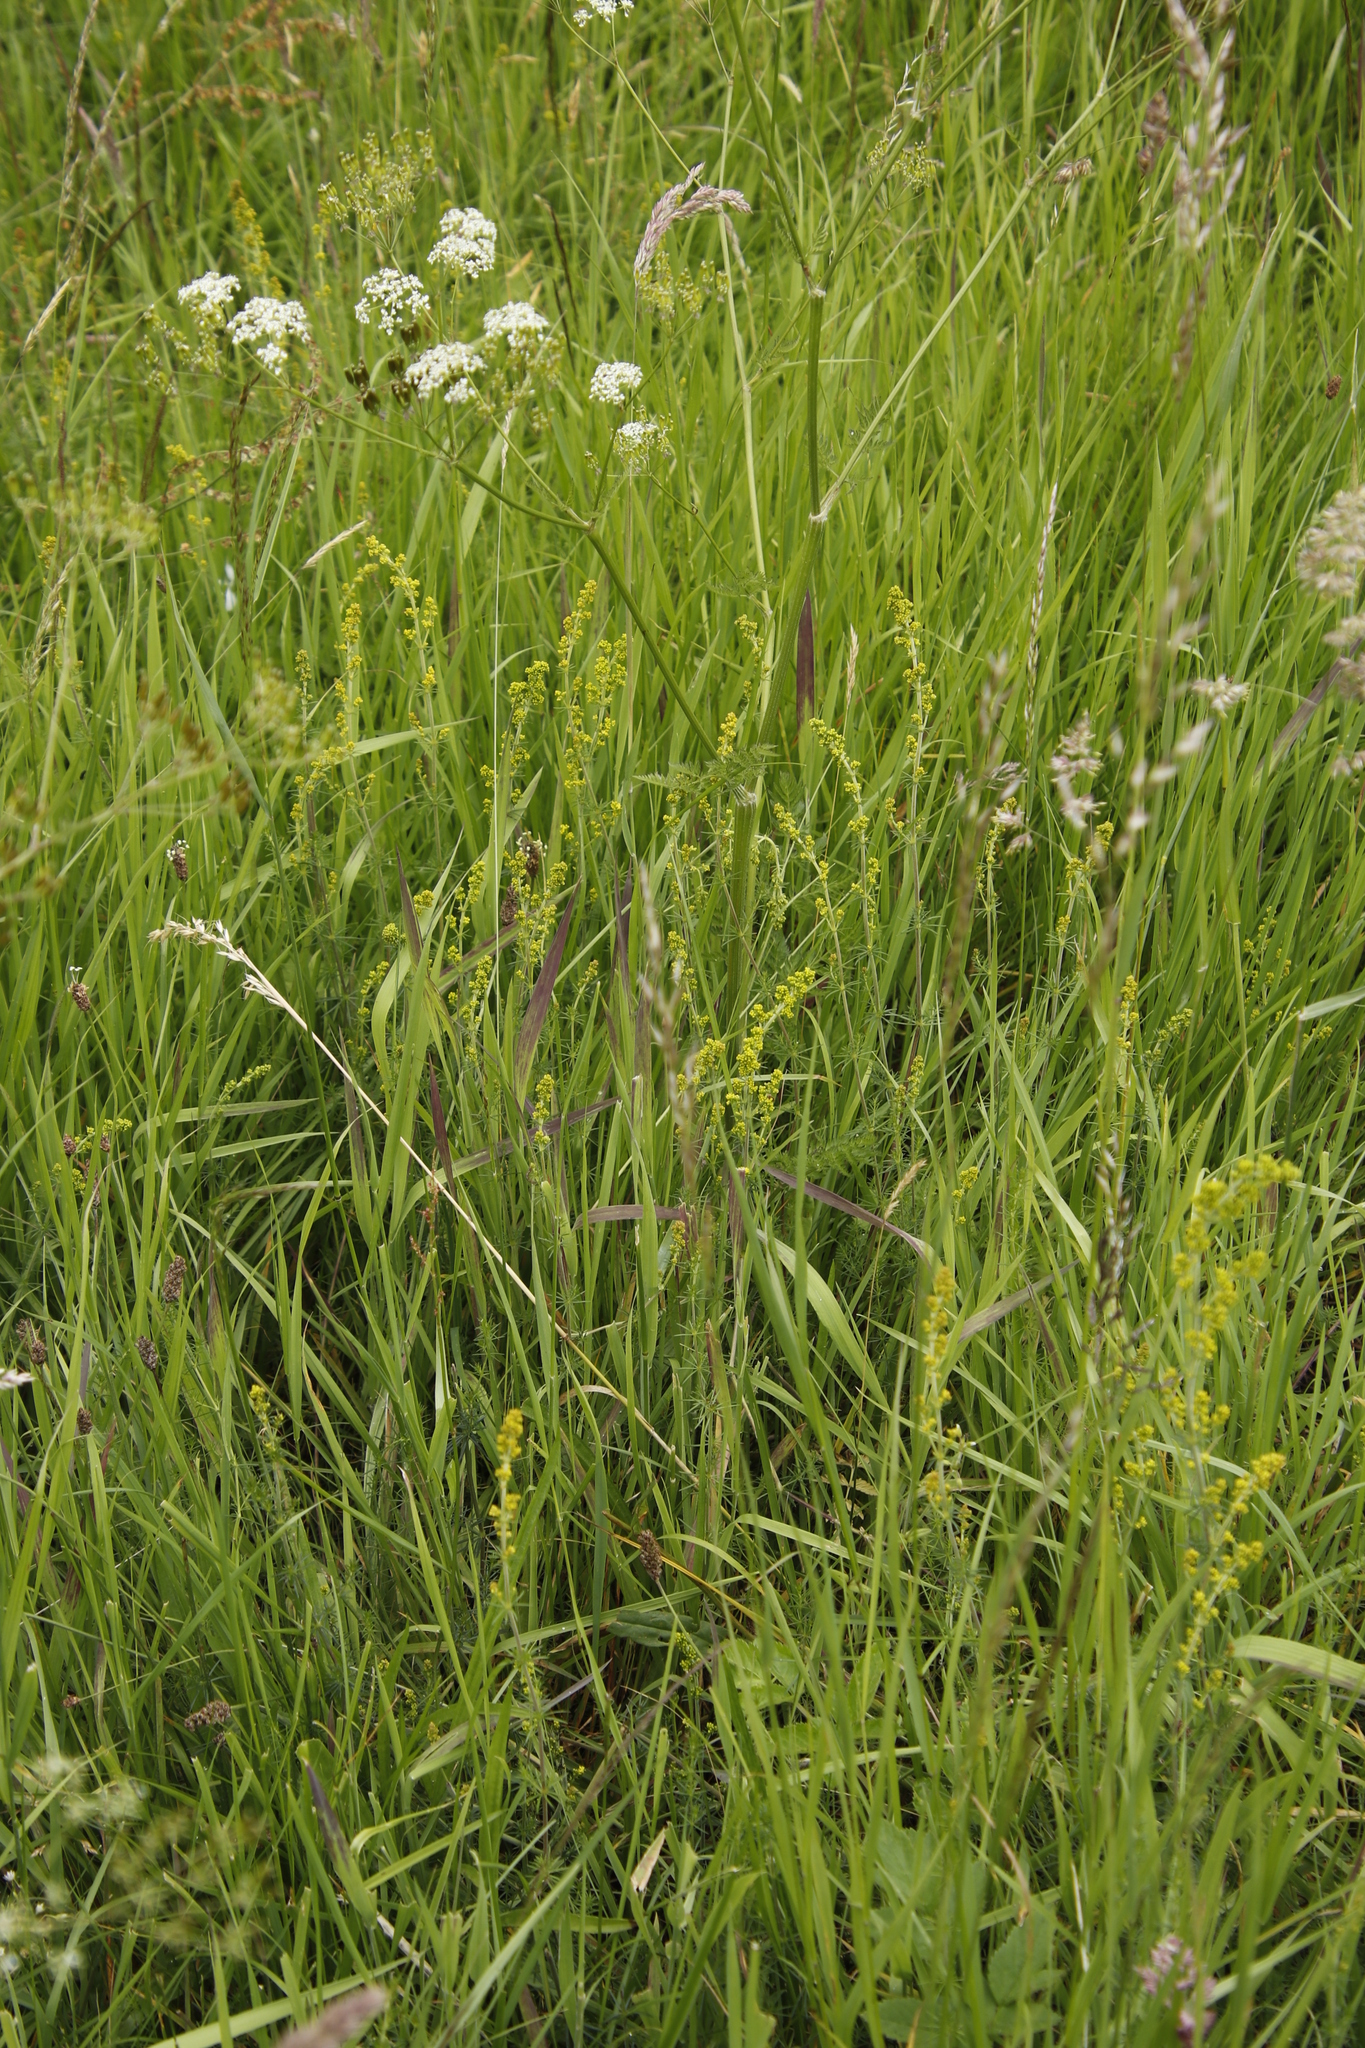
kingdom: Plantae
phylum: Tracheophyta
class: Magnoliopsida
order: Apiales
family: Apiaceae
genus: Anthriscus
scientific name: Anthriscus sylvestris
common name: Cow parsley
